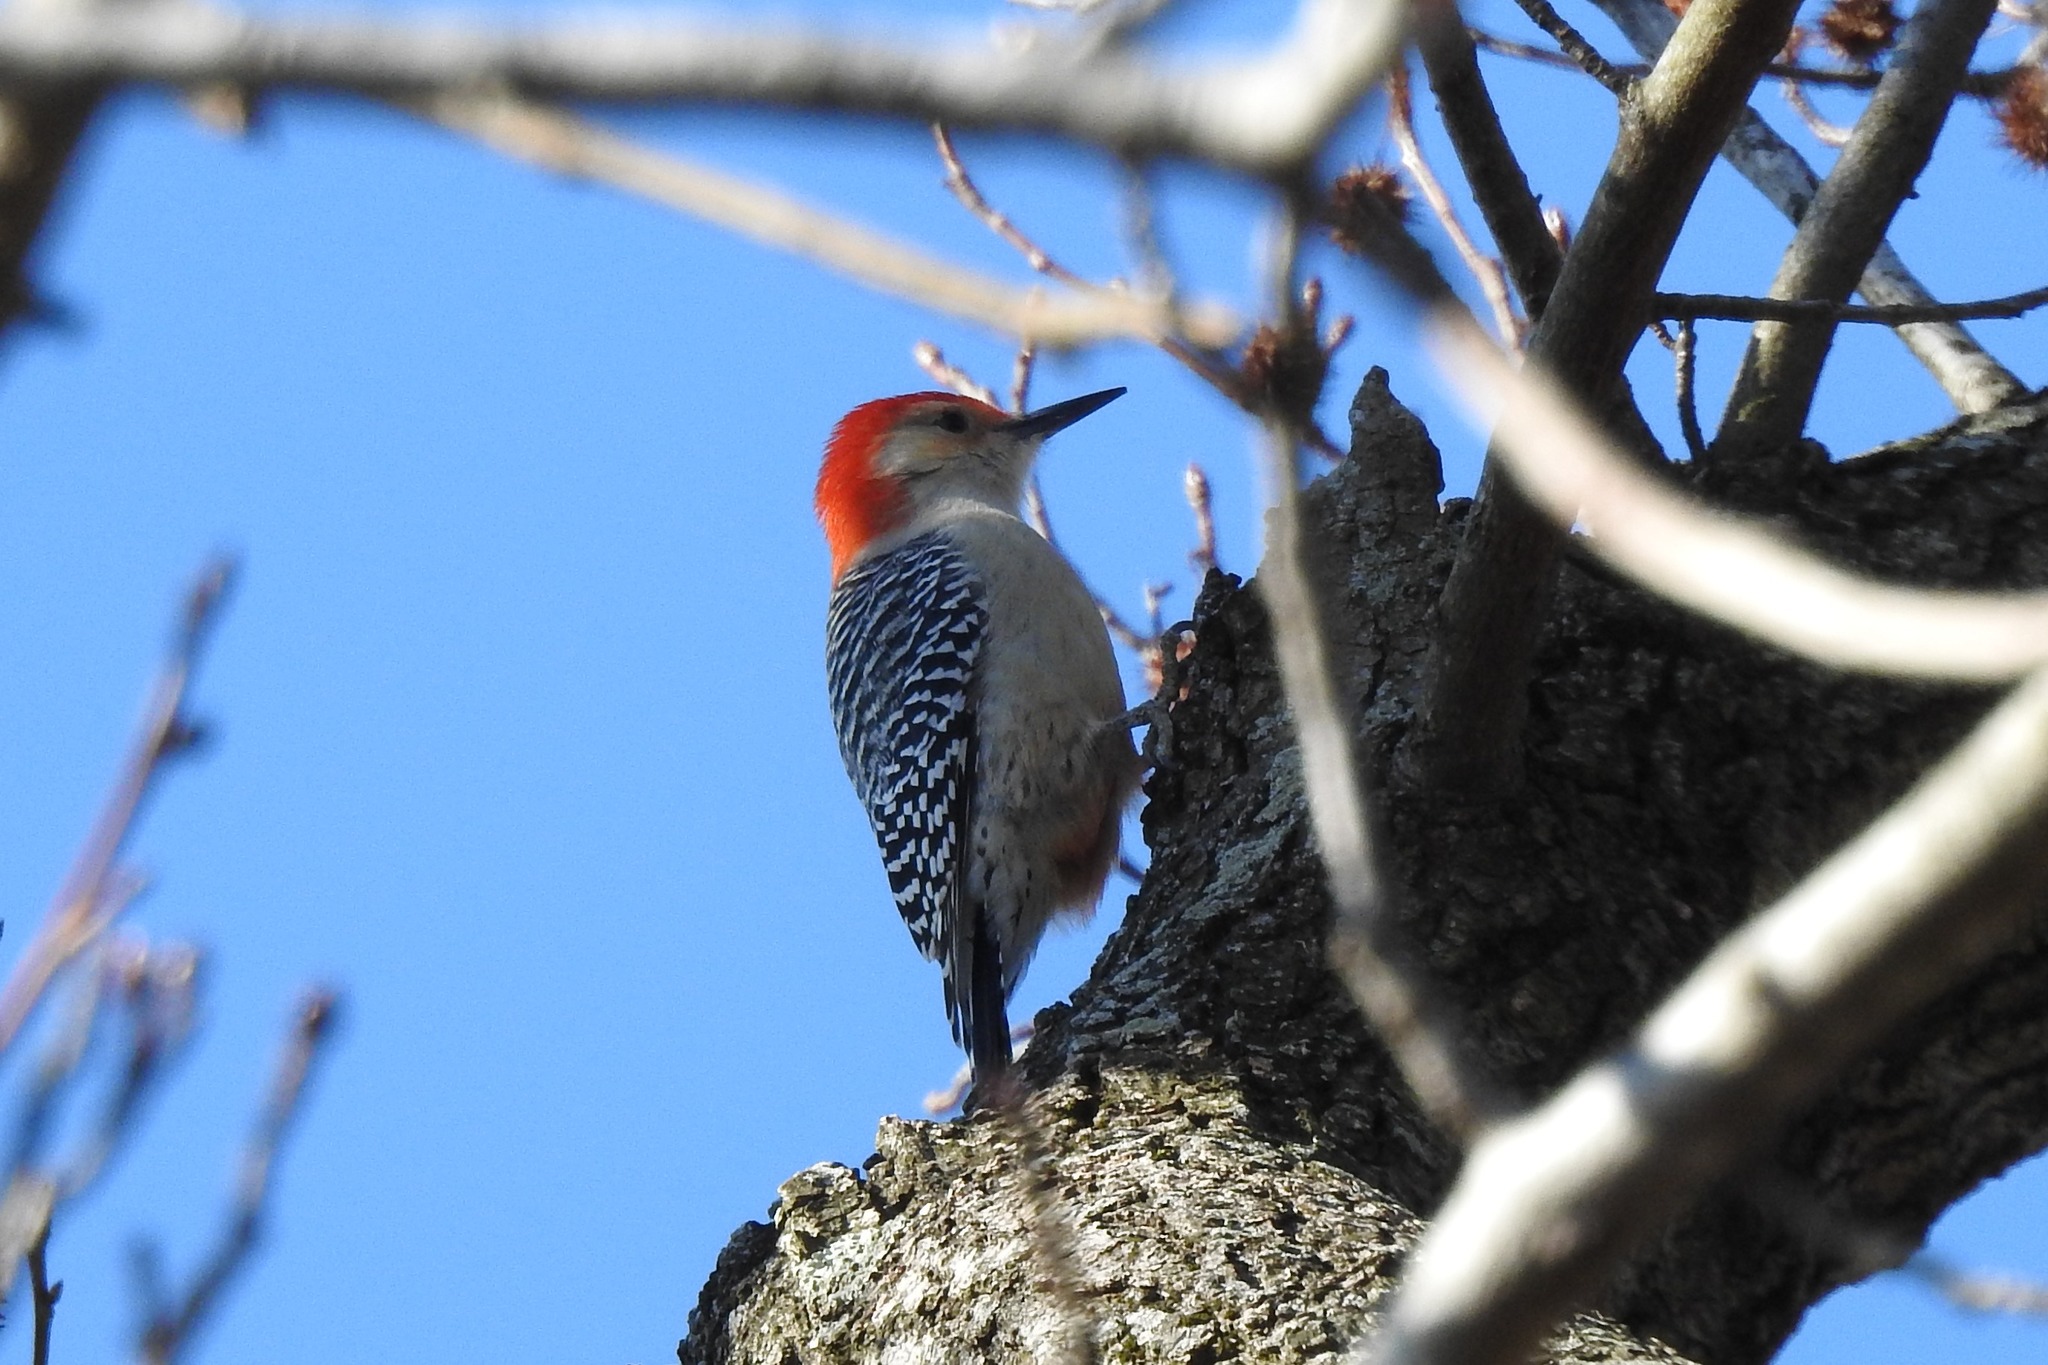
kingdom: Animalia
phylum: Chordata
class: Aves
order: Piciformes
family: Picidae
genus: Melanerpes
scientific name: Melanerpes carolinus
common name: Red-bellied woodpecker
